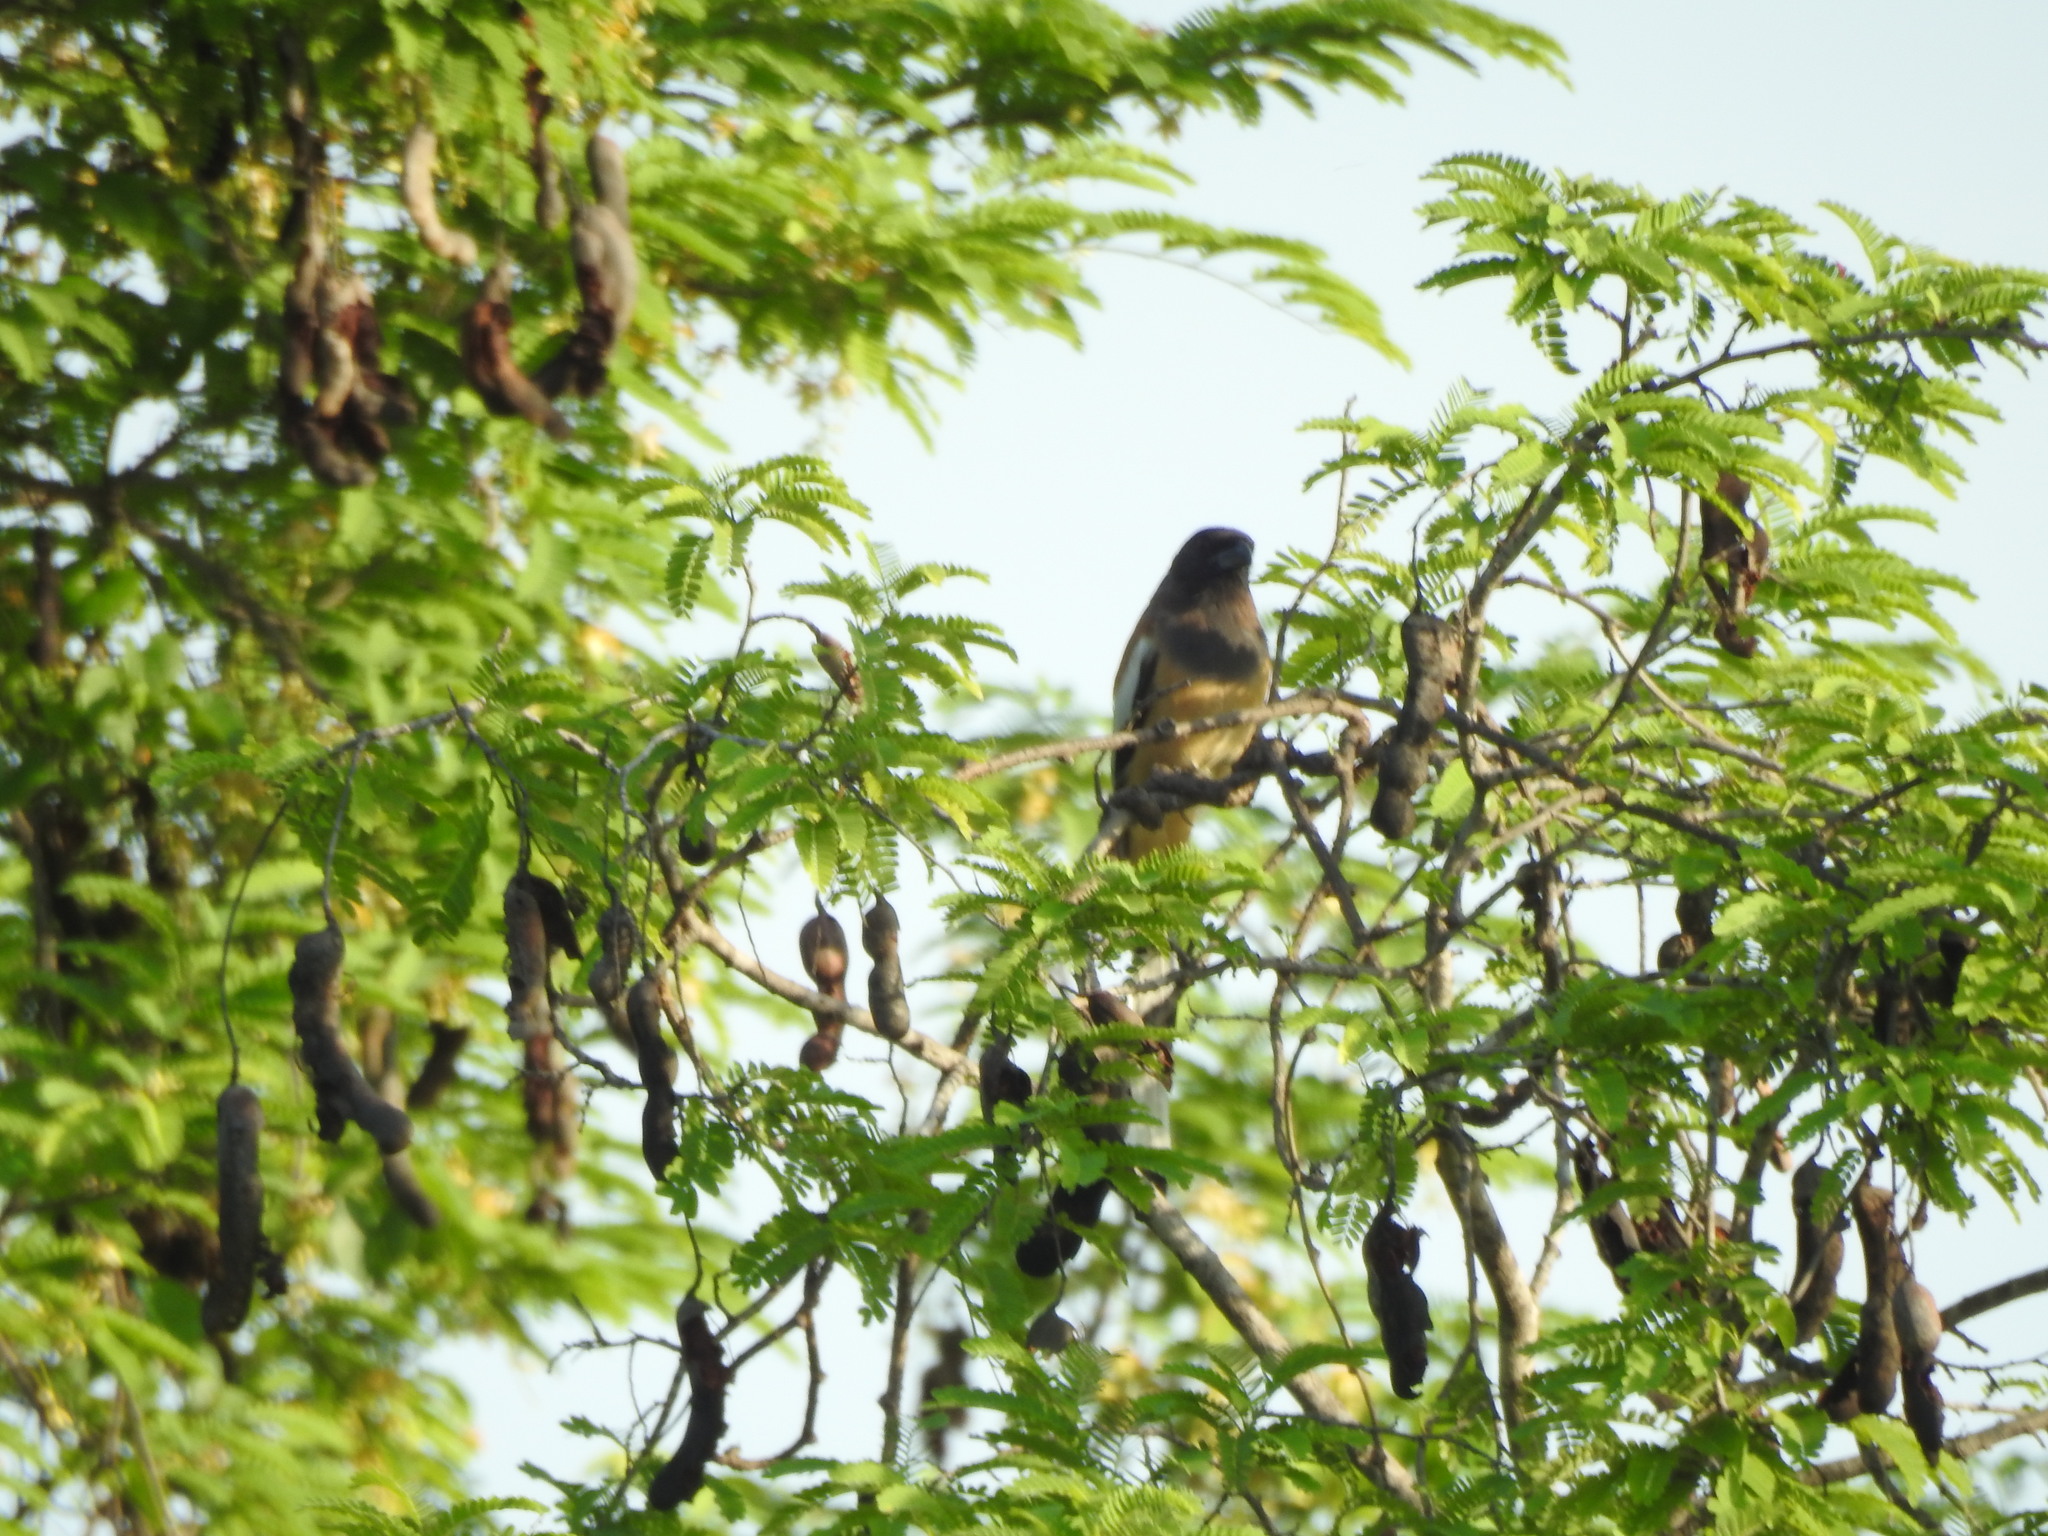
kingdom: Animalia
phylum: Chordata
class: Aves
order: Passeriformes
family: Corvidae
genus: Dendrocitta
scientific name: Dendrocitta vagabunda
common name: Rufous treepie
